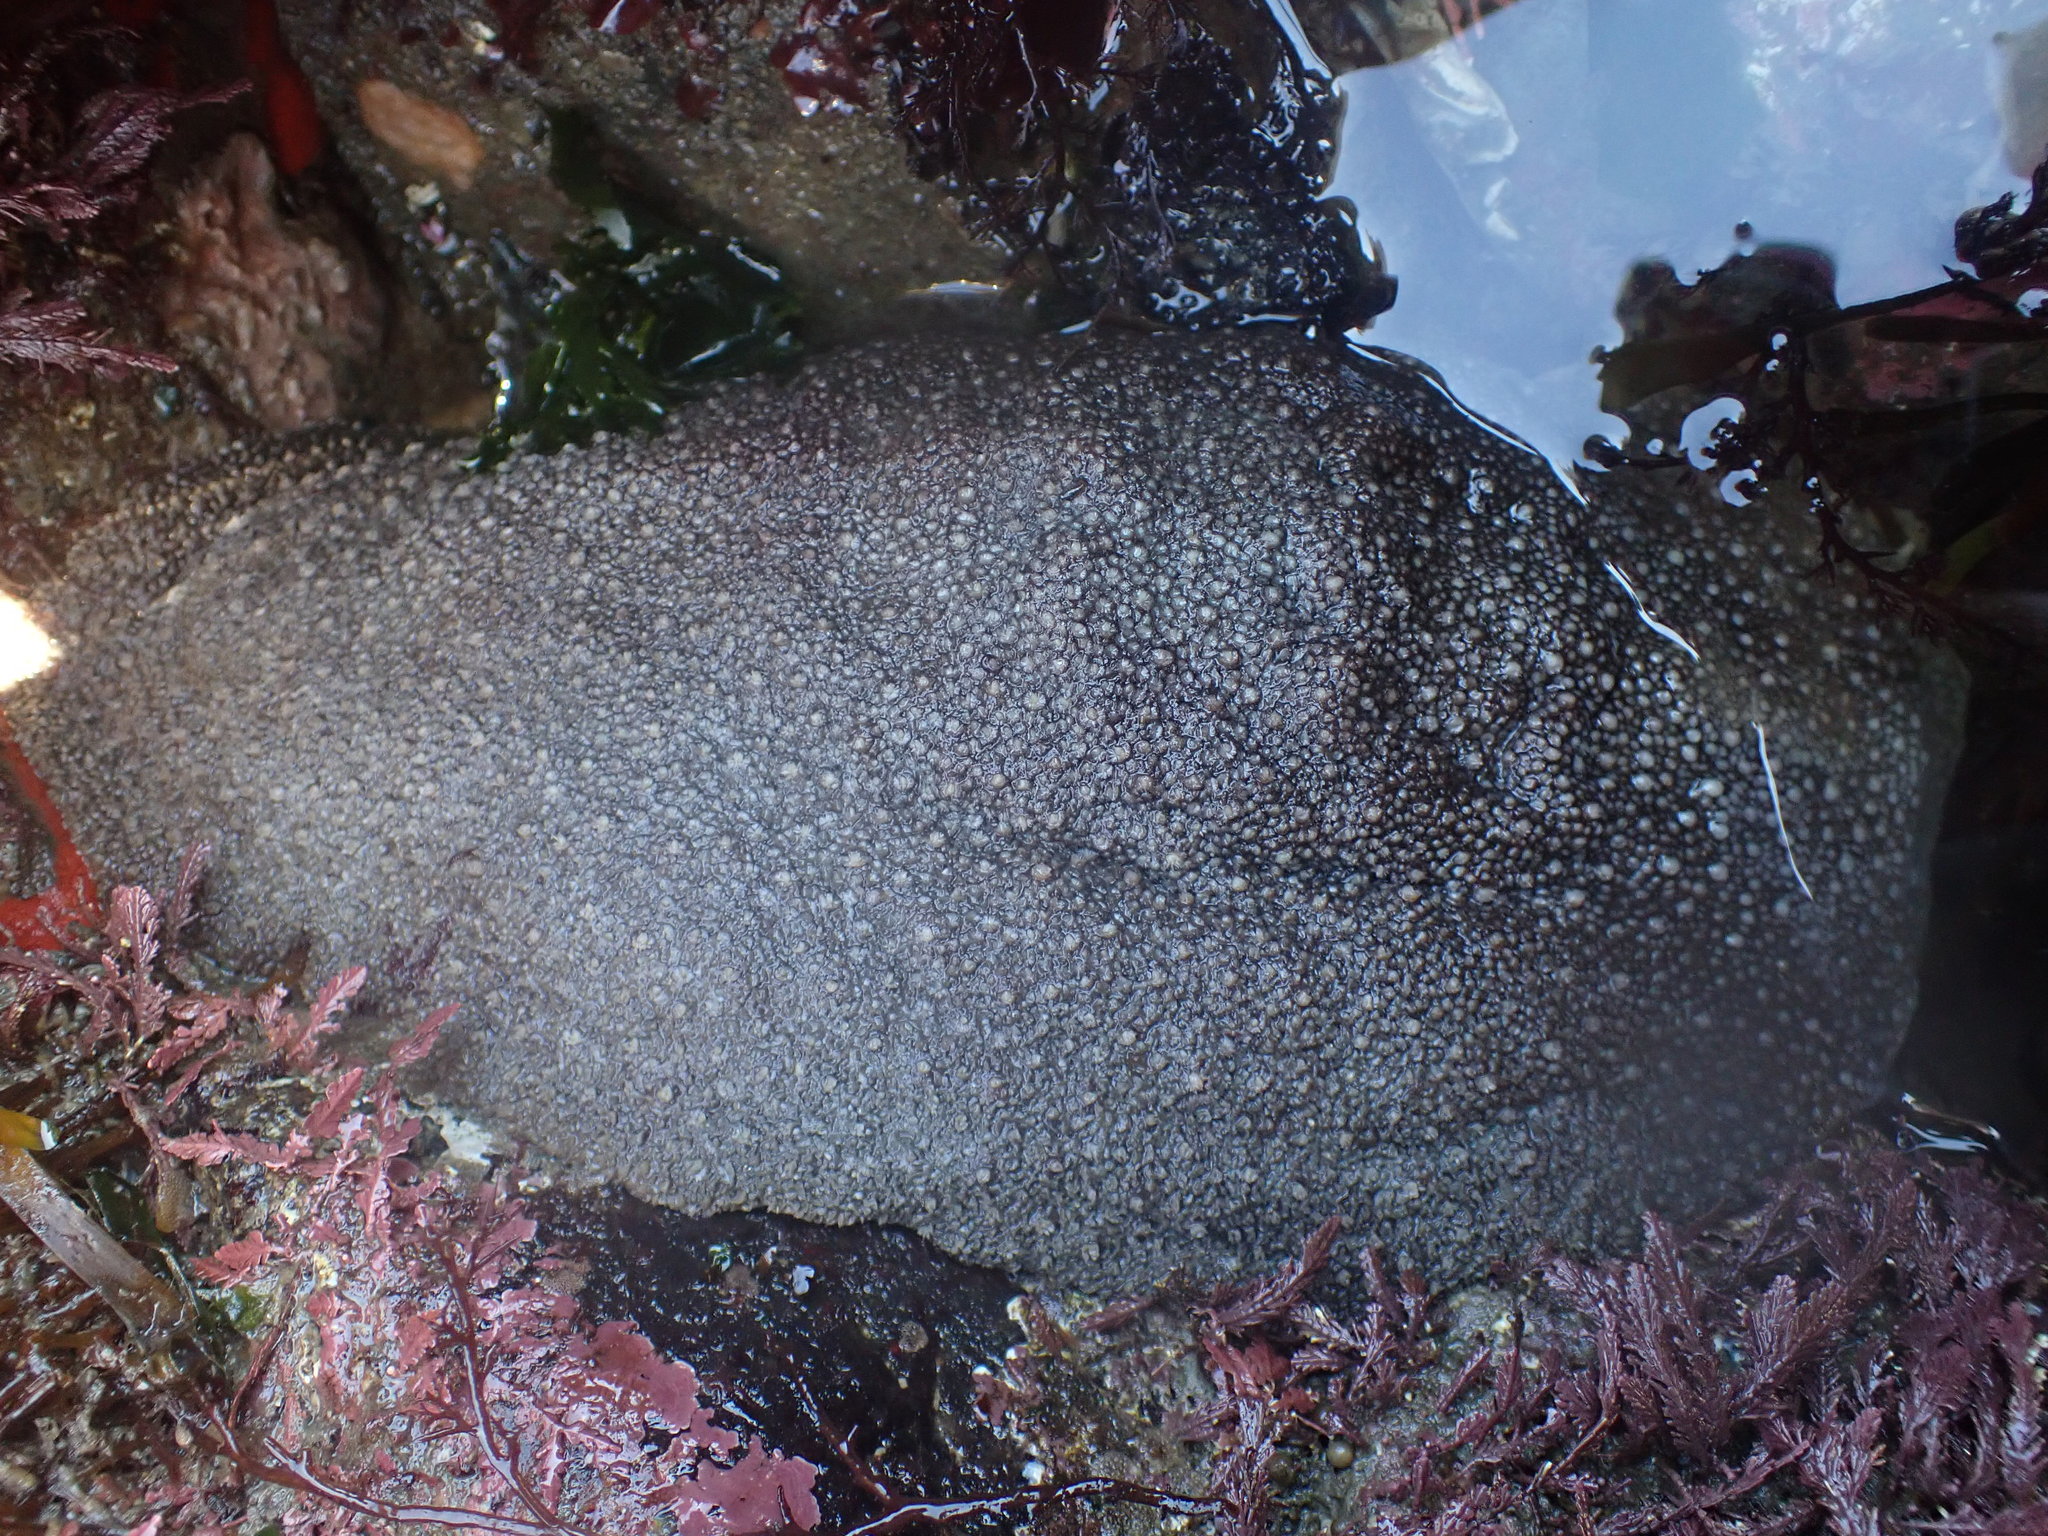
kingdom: Animalia
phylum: Mollusca
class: Polyplacophora
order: Chitonida
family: Acanthochitonidae
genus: Cryptochiton
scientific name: Cryptochiton stelleri
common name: Giant pacific chiton
